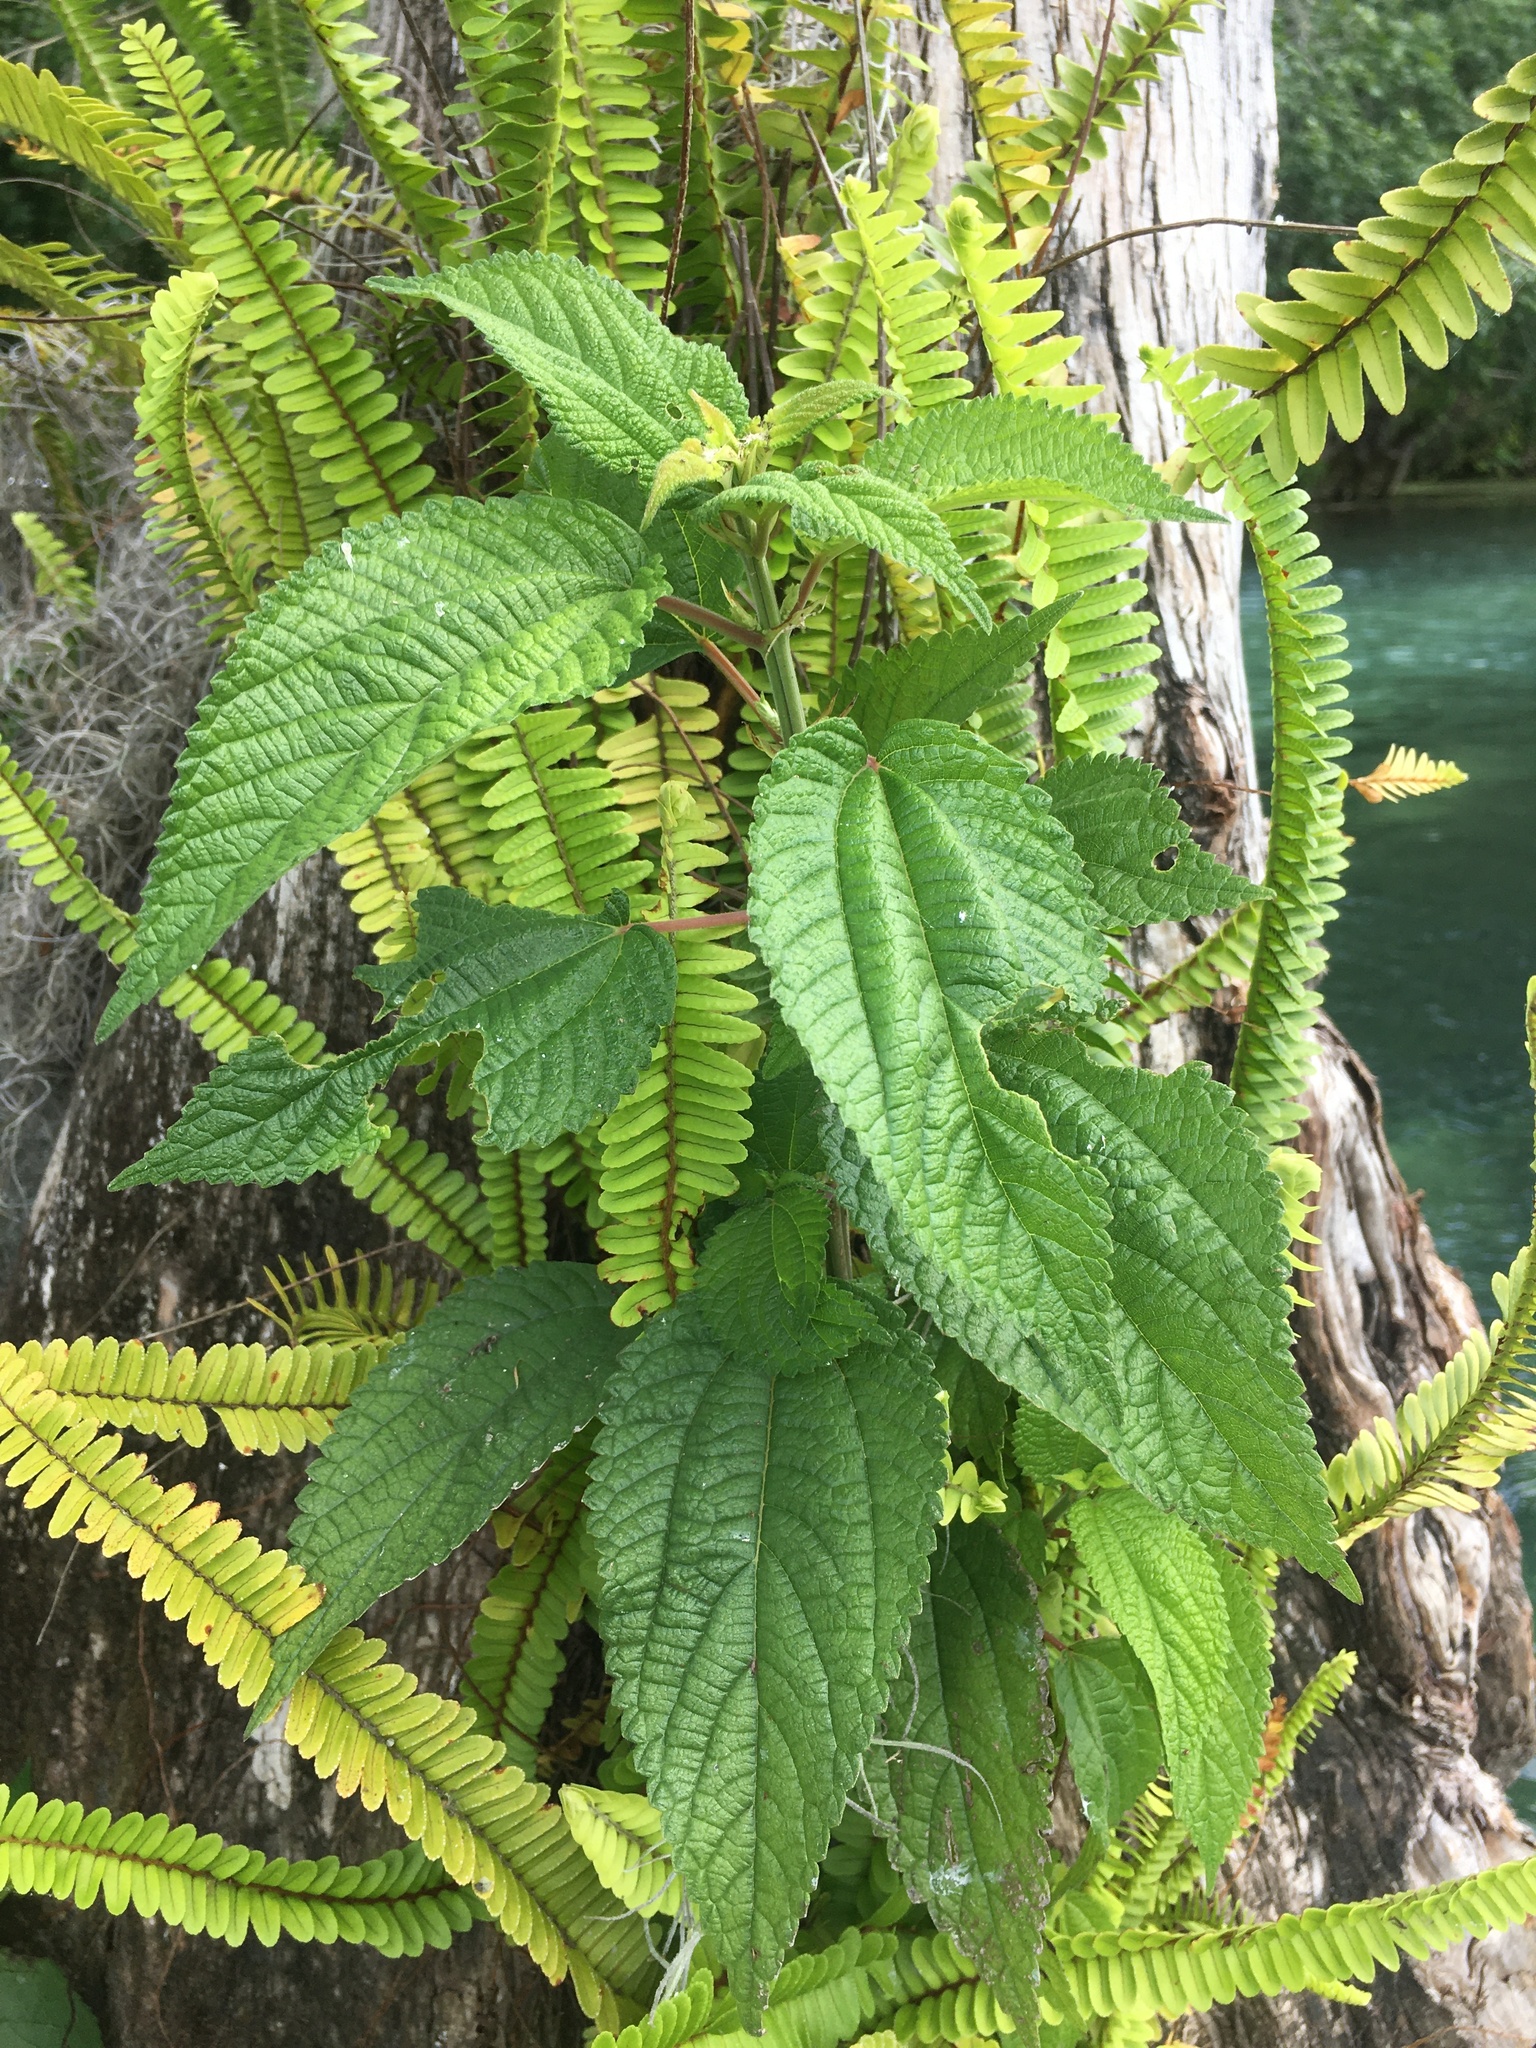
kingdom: Plantae
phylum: Tracheophyta
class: Magnoliopsida
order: Rosales
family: Urticaceae
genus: Boehmeria
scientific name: Boehmeria cylindrica
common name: Bog-hemp
